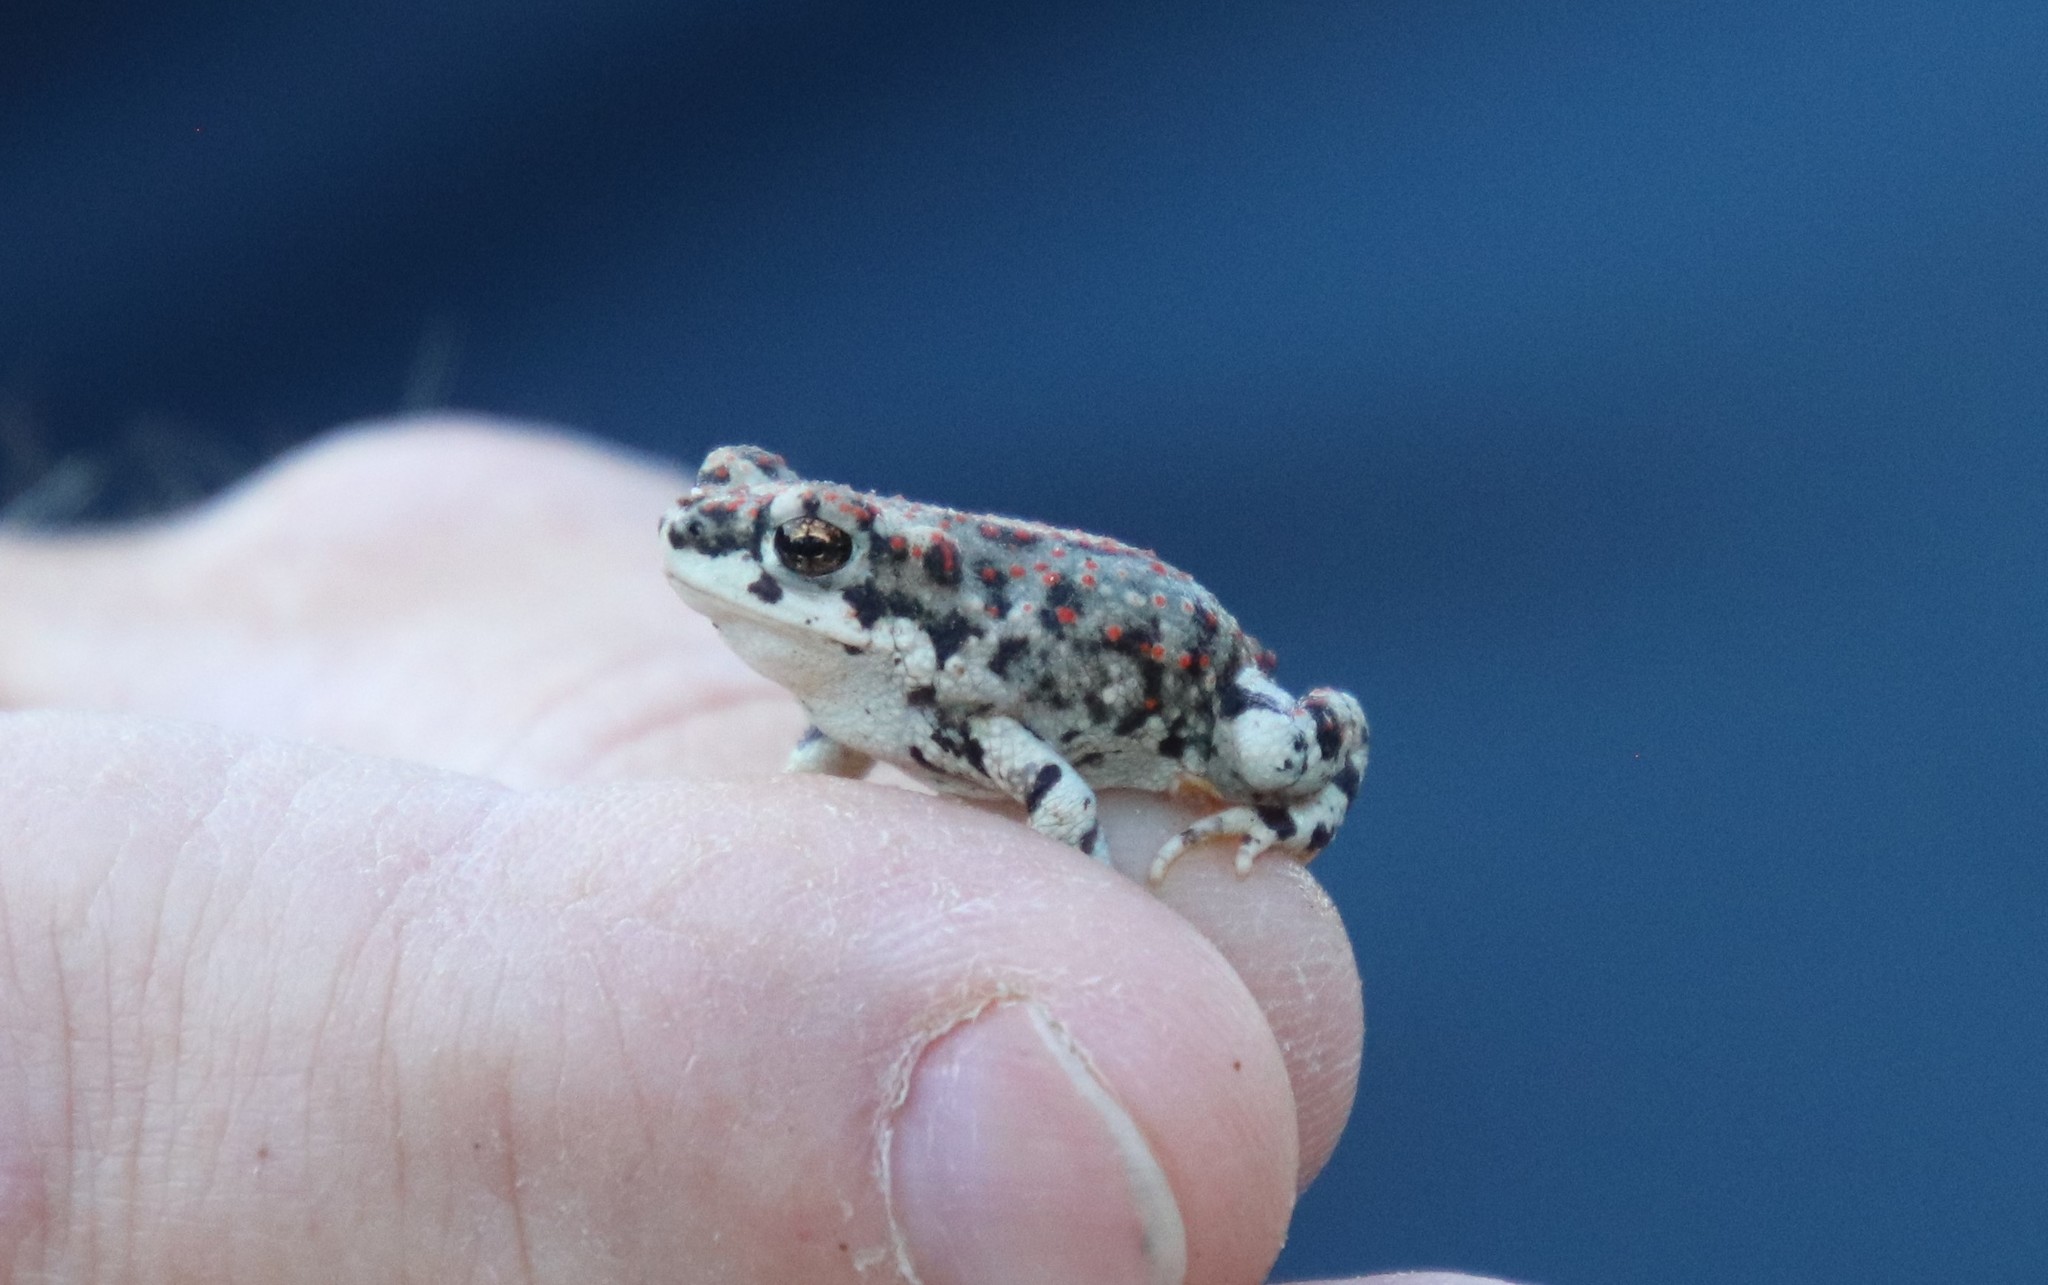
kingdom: Animalia
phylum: Chordata
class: Amphibia
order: Anura
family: Bufonidae
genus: Anaxyrus
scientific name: Anaxyrus punctatus
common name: Red-spotted toad
